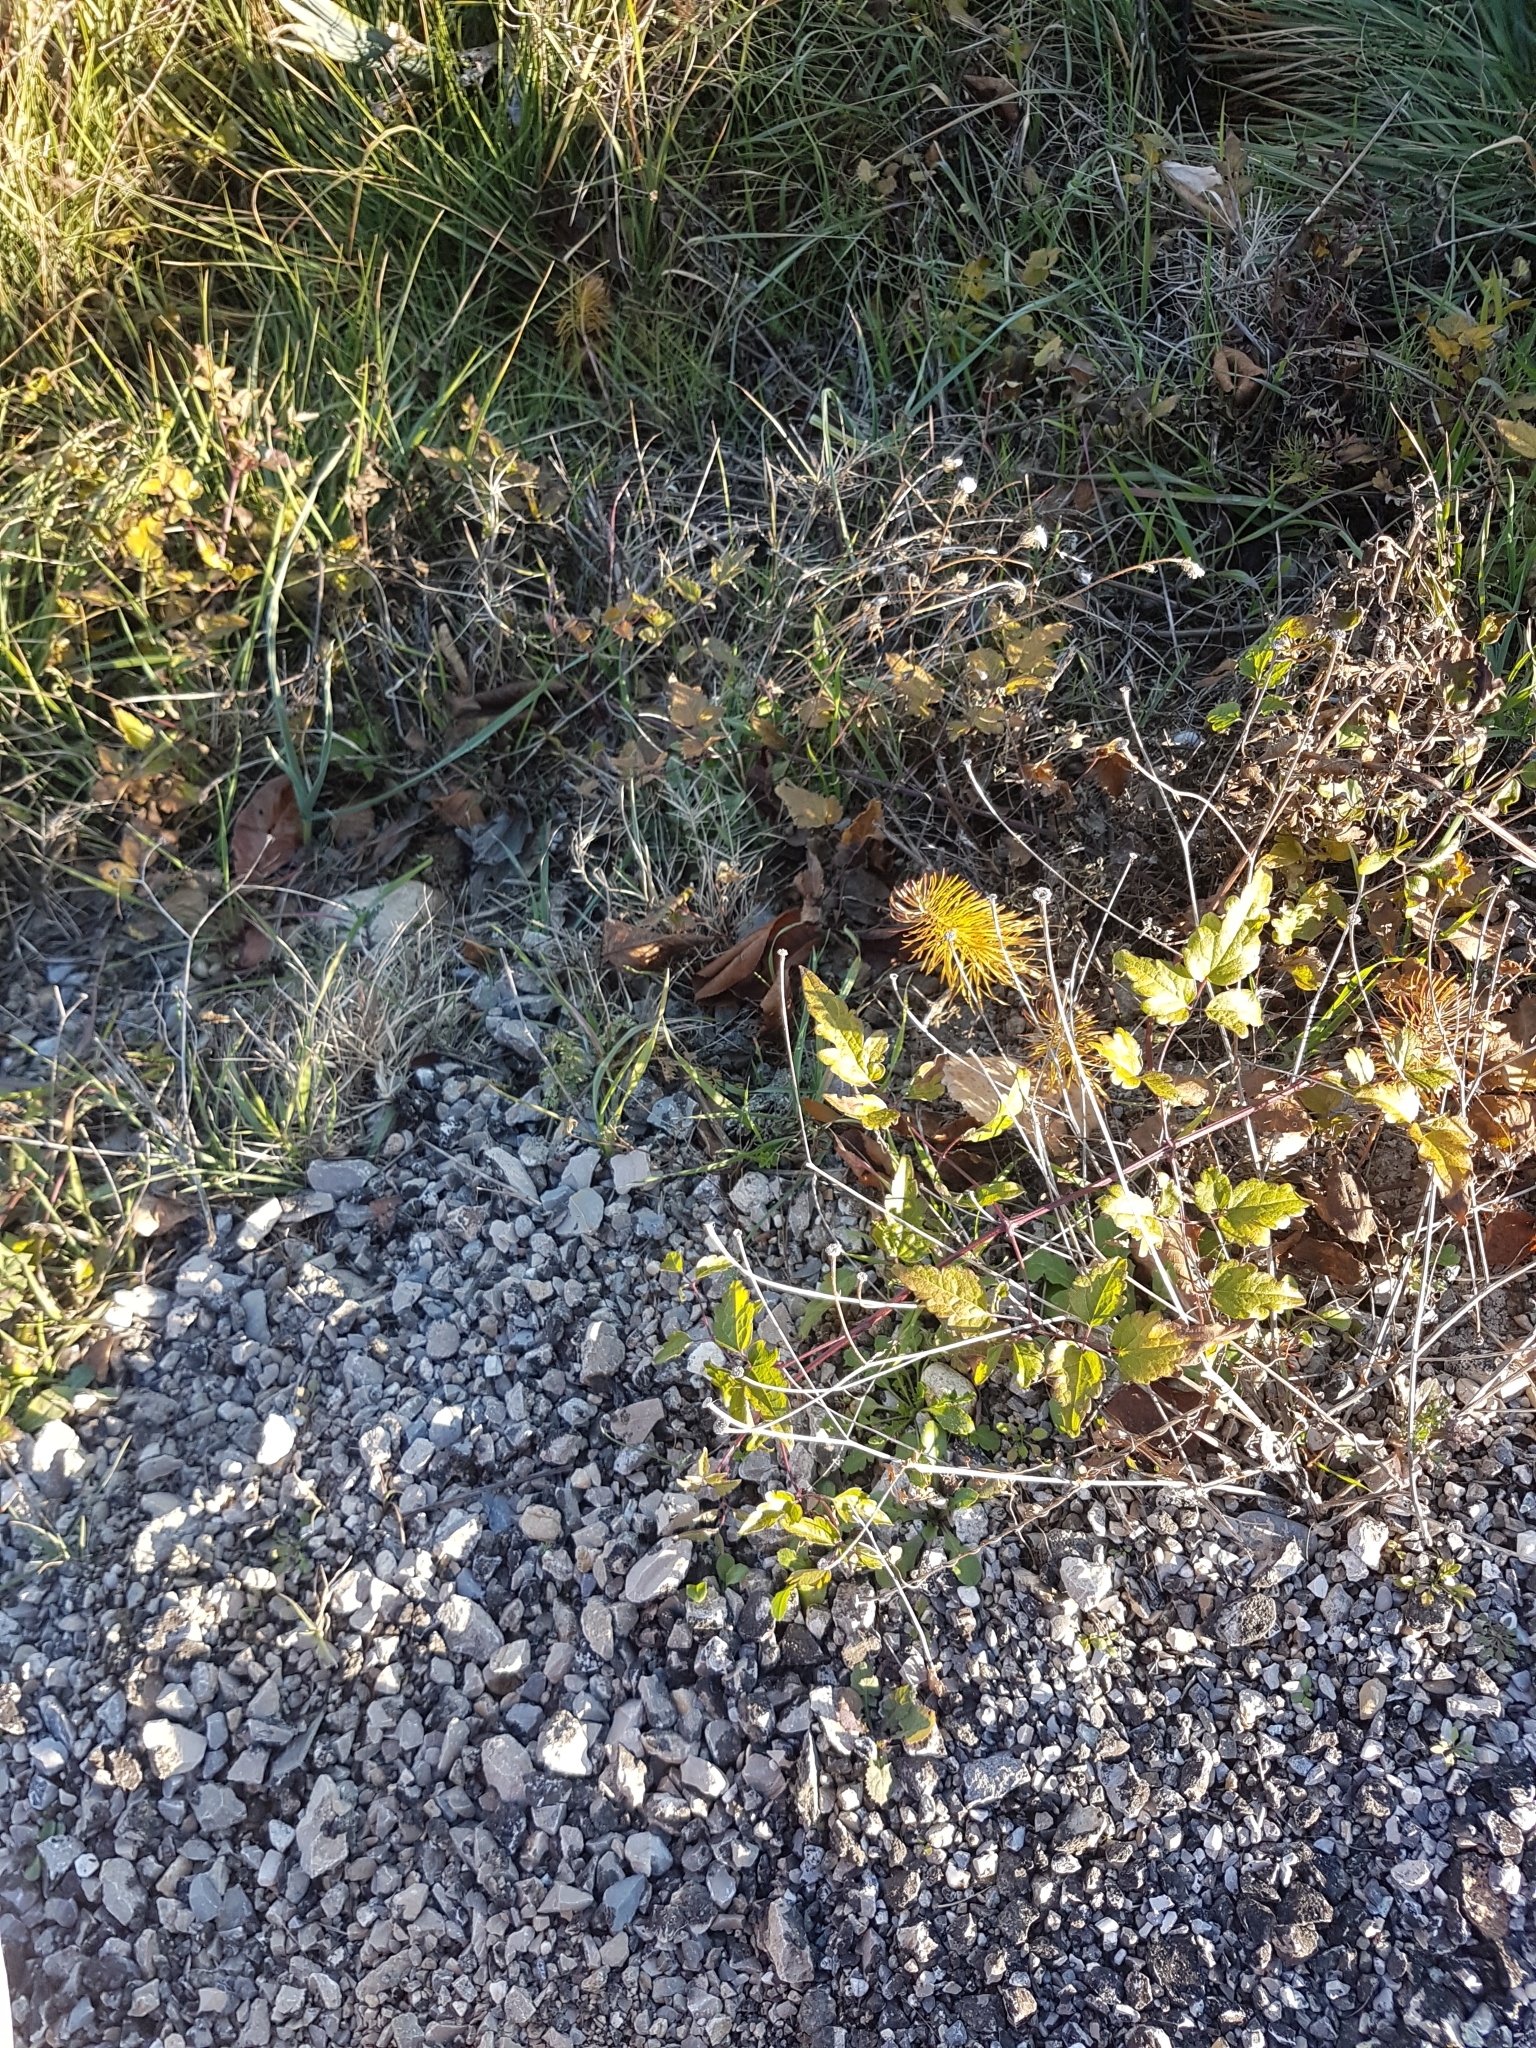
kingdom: Plantae
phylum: Tracheophyta
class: Magnoliopsida
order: Ranunculales
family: Ranunculaceae
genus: Clematis
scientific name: Clematis vitalba
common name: Evergreen clematis
